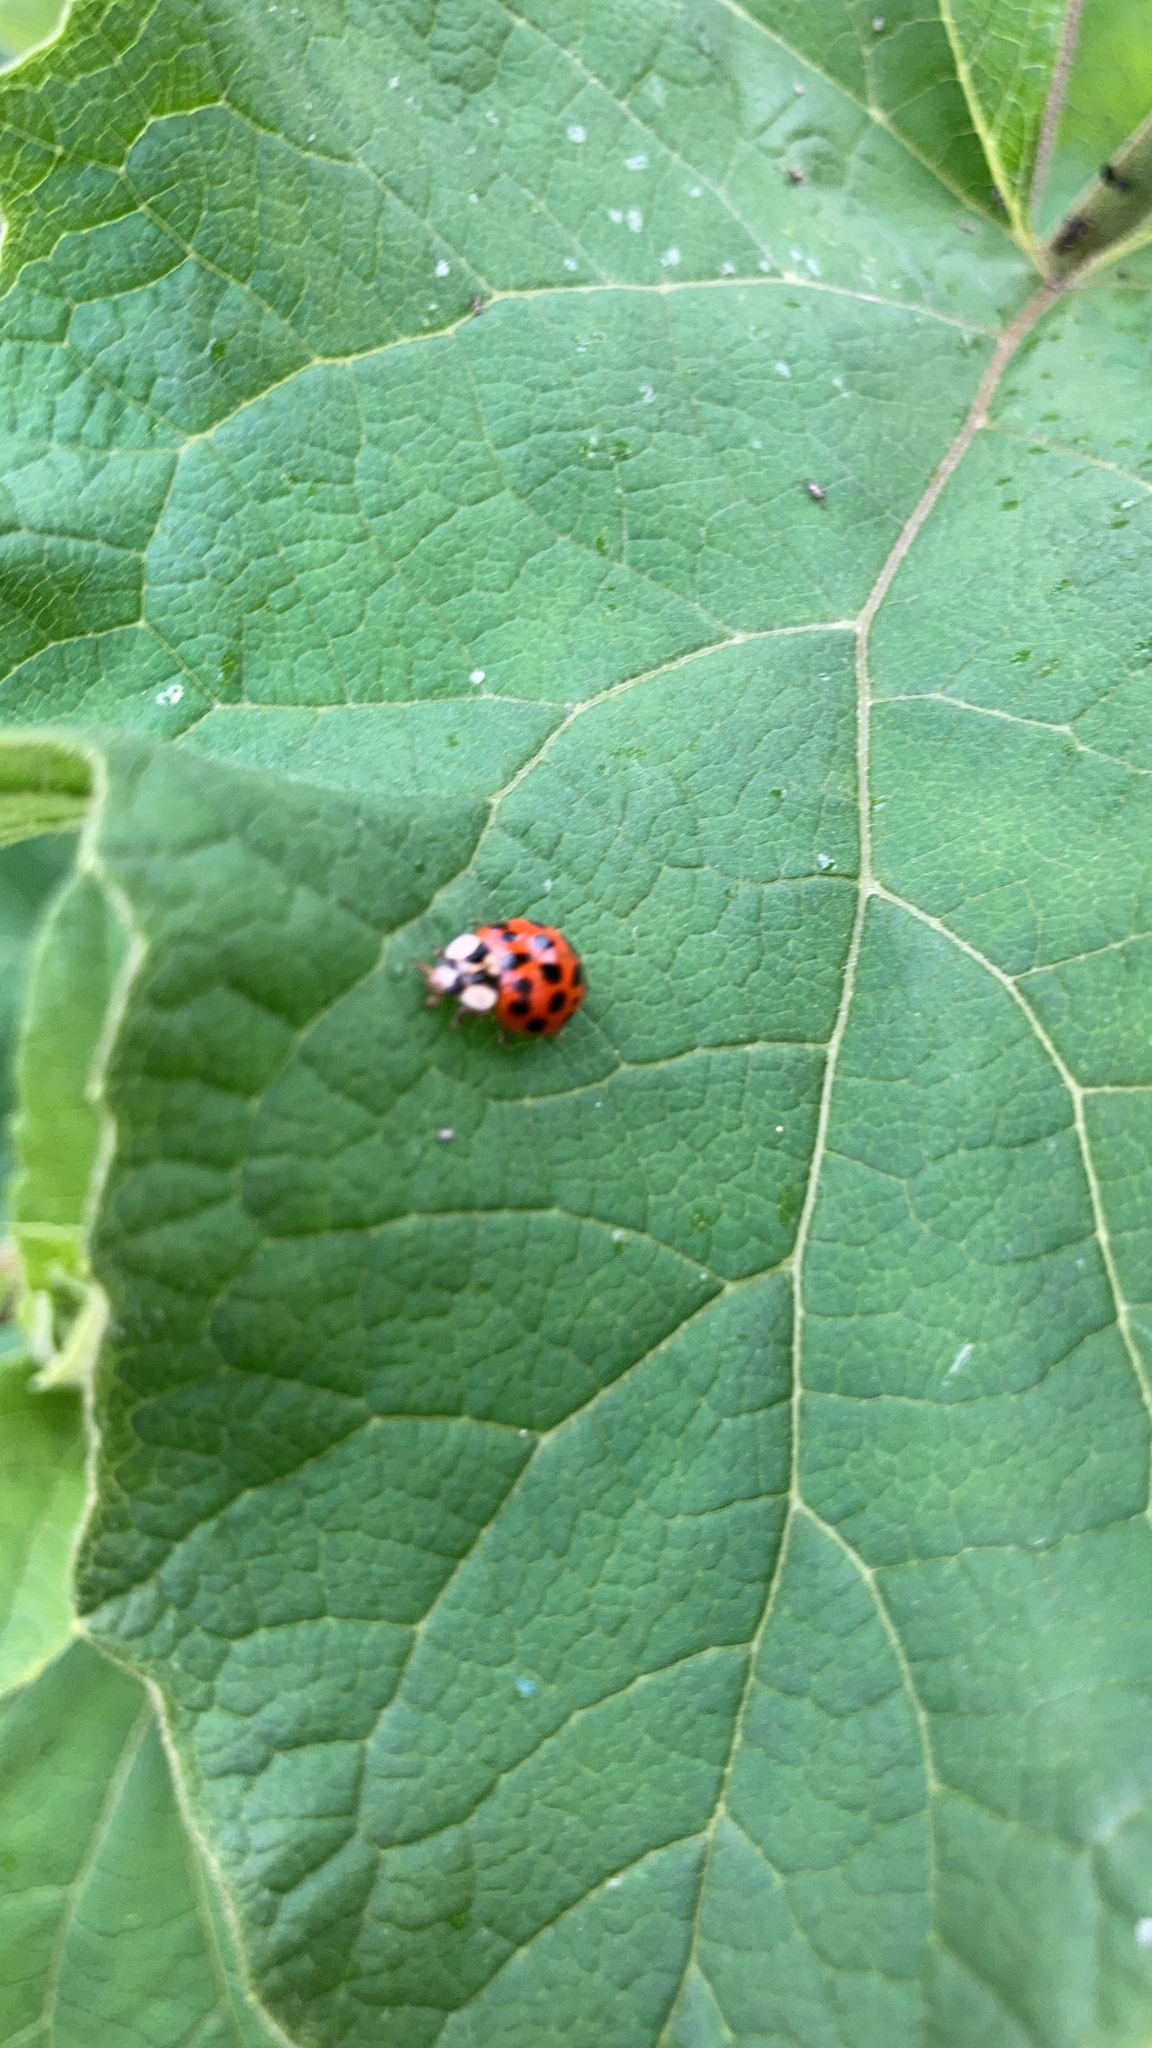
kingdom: Animalia
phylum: Arthropoda
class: Insecta
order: Coleoptera
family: Coccinellidae
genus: Harmonia
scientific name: Harmonia axyridis
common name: Harlequin ladybird
